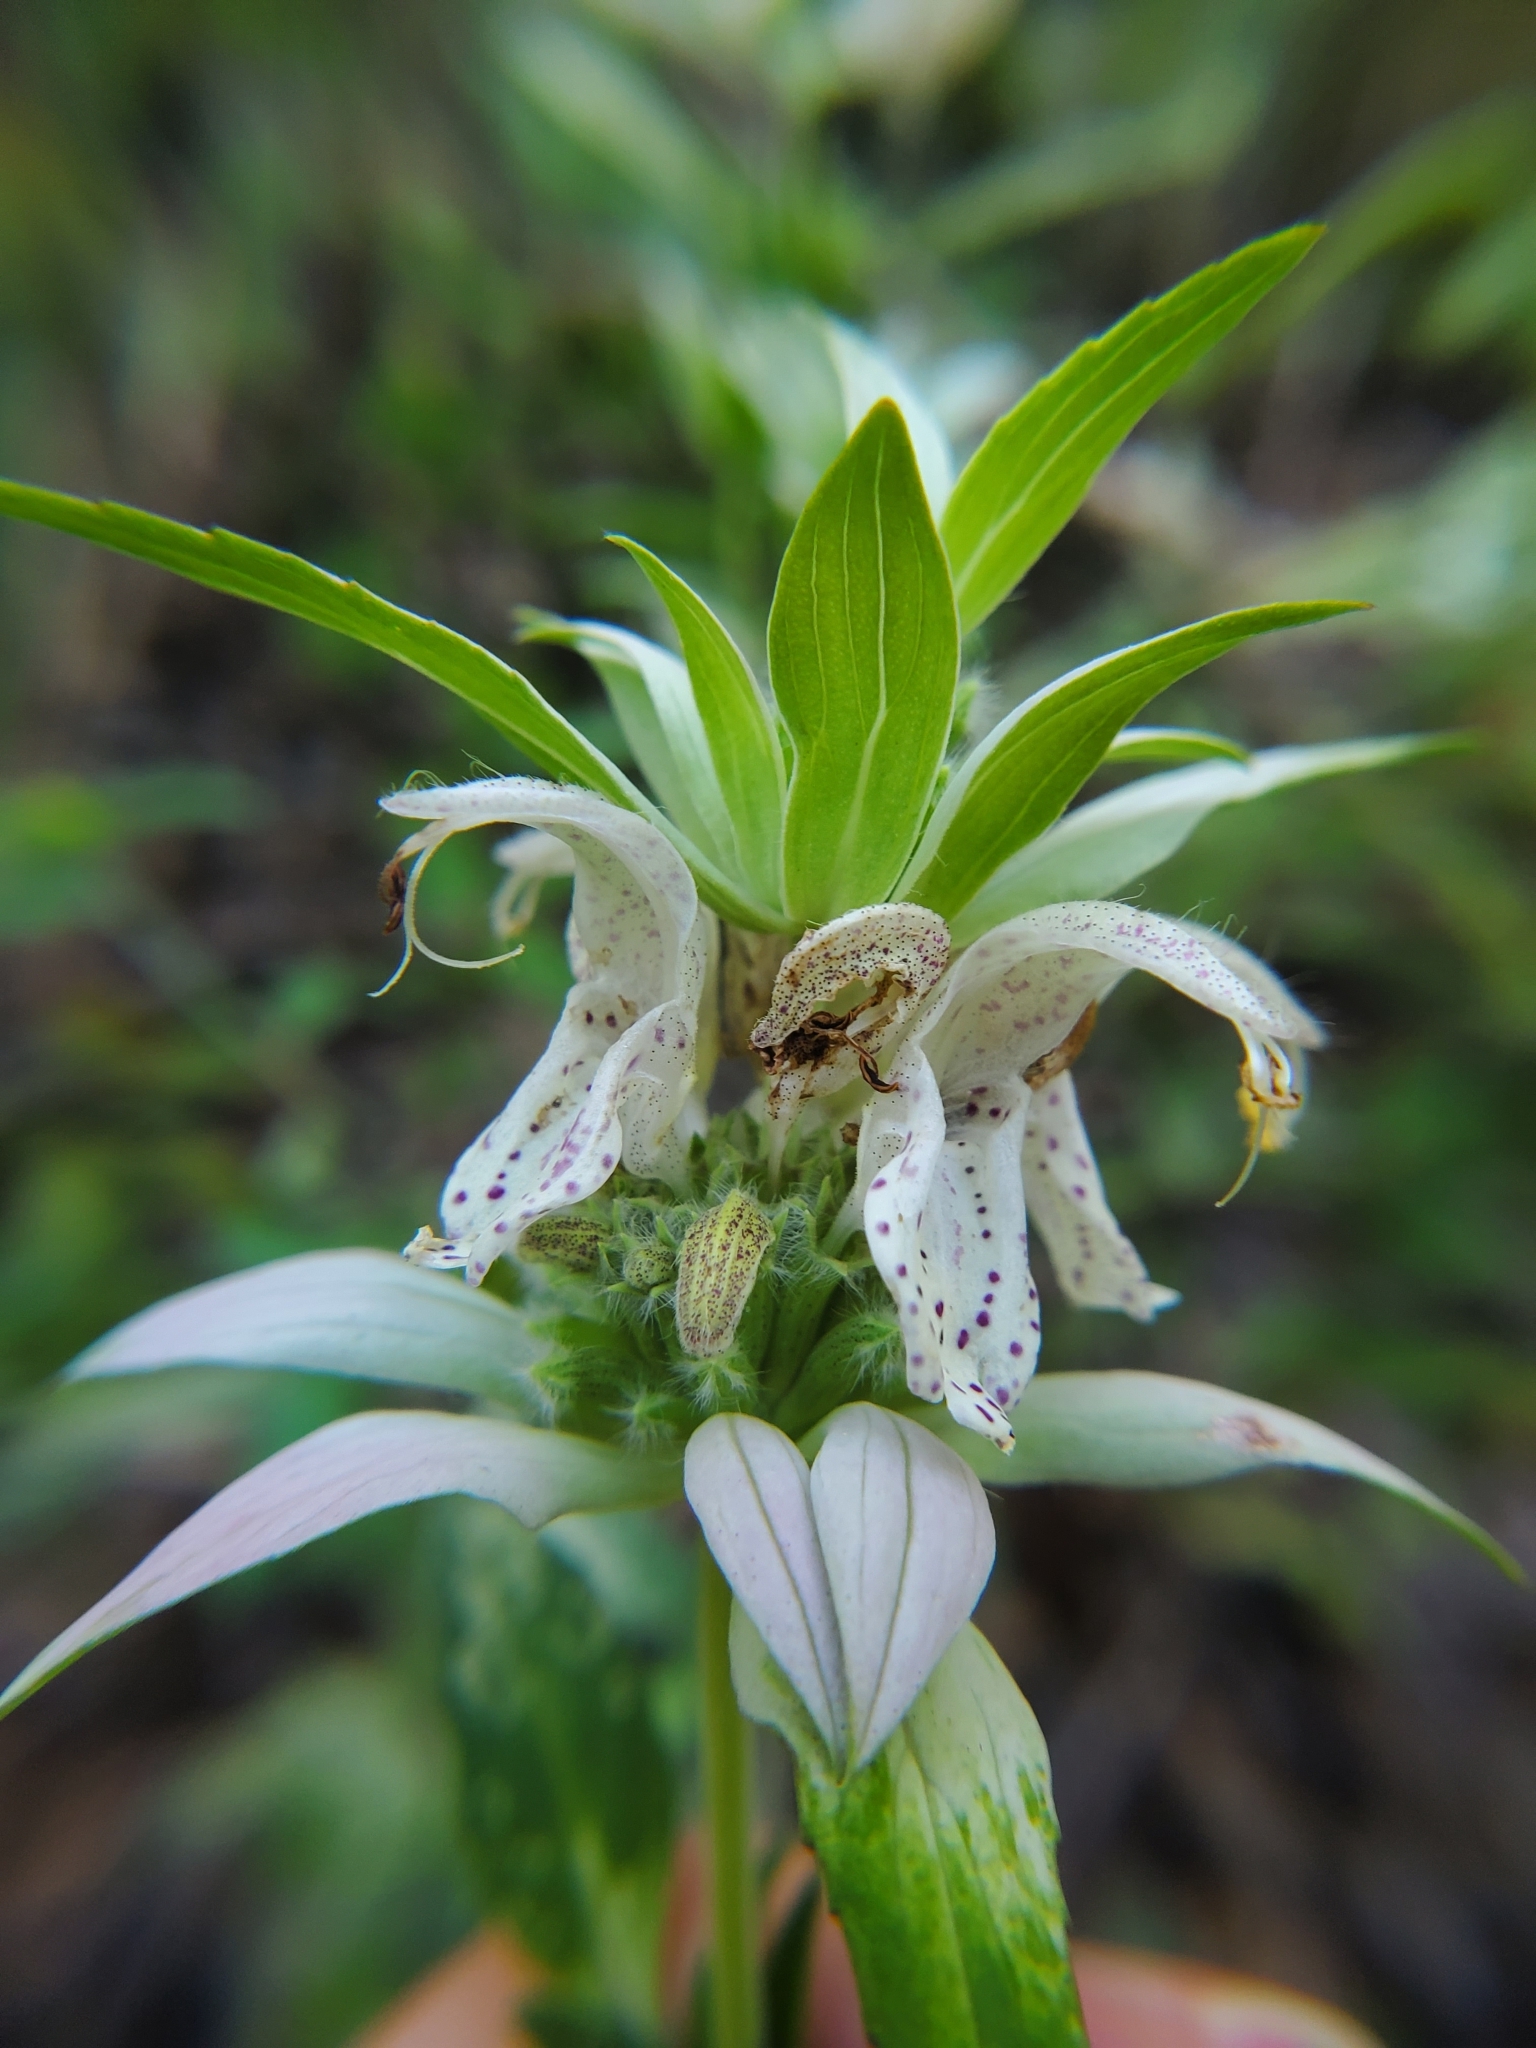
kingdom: Plantae
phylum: Tracheophyta
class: Magnoliopsida
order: Lamiales
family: Lamiaceae
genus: Monarda
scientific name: Monarda punctata
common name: Dotted monarda
